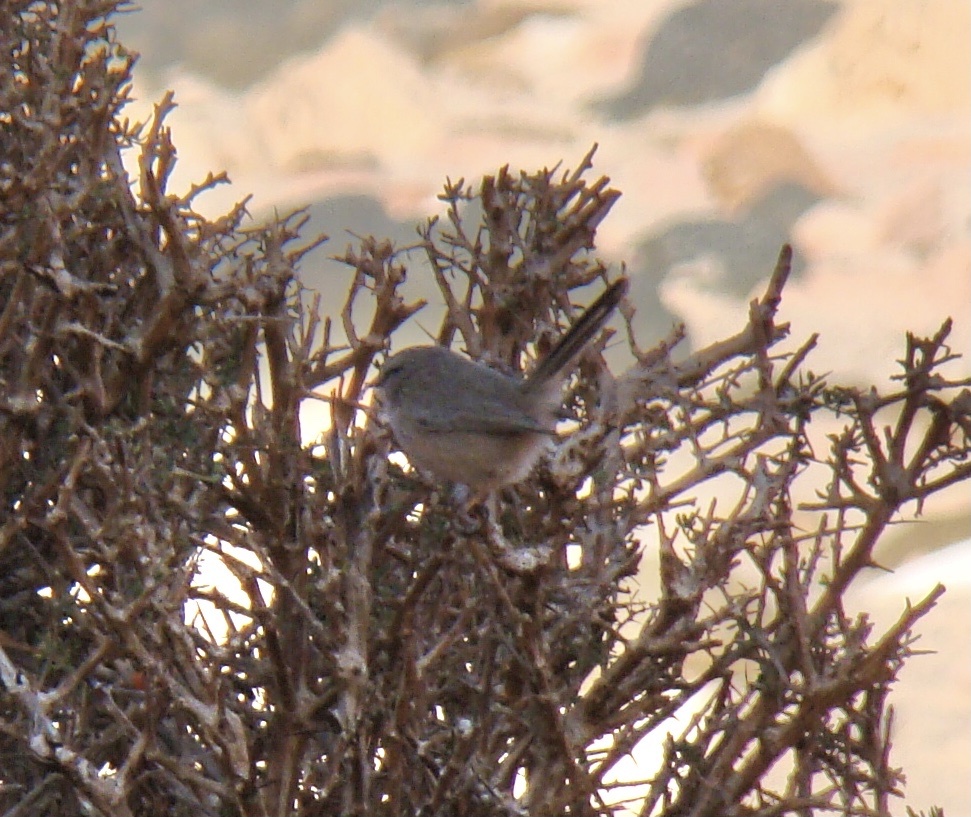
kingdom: Animalia
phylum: Chordata
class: Aves
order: Passeriformes
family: Scotocercidae
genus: Scotocerca
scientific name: Scotocerca inquieta
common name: Scrub warbler
